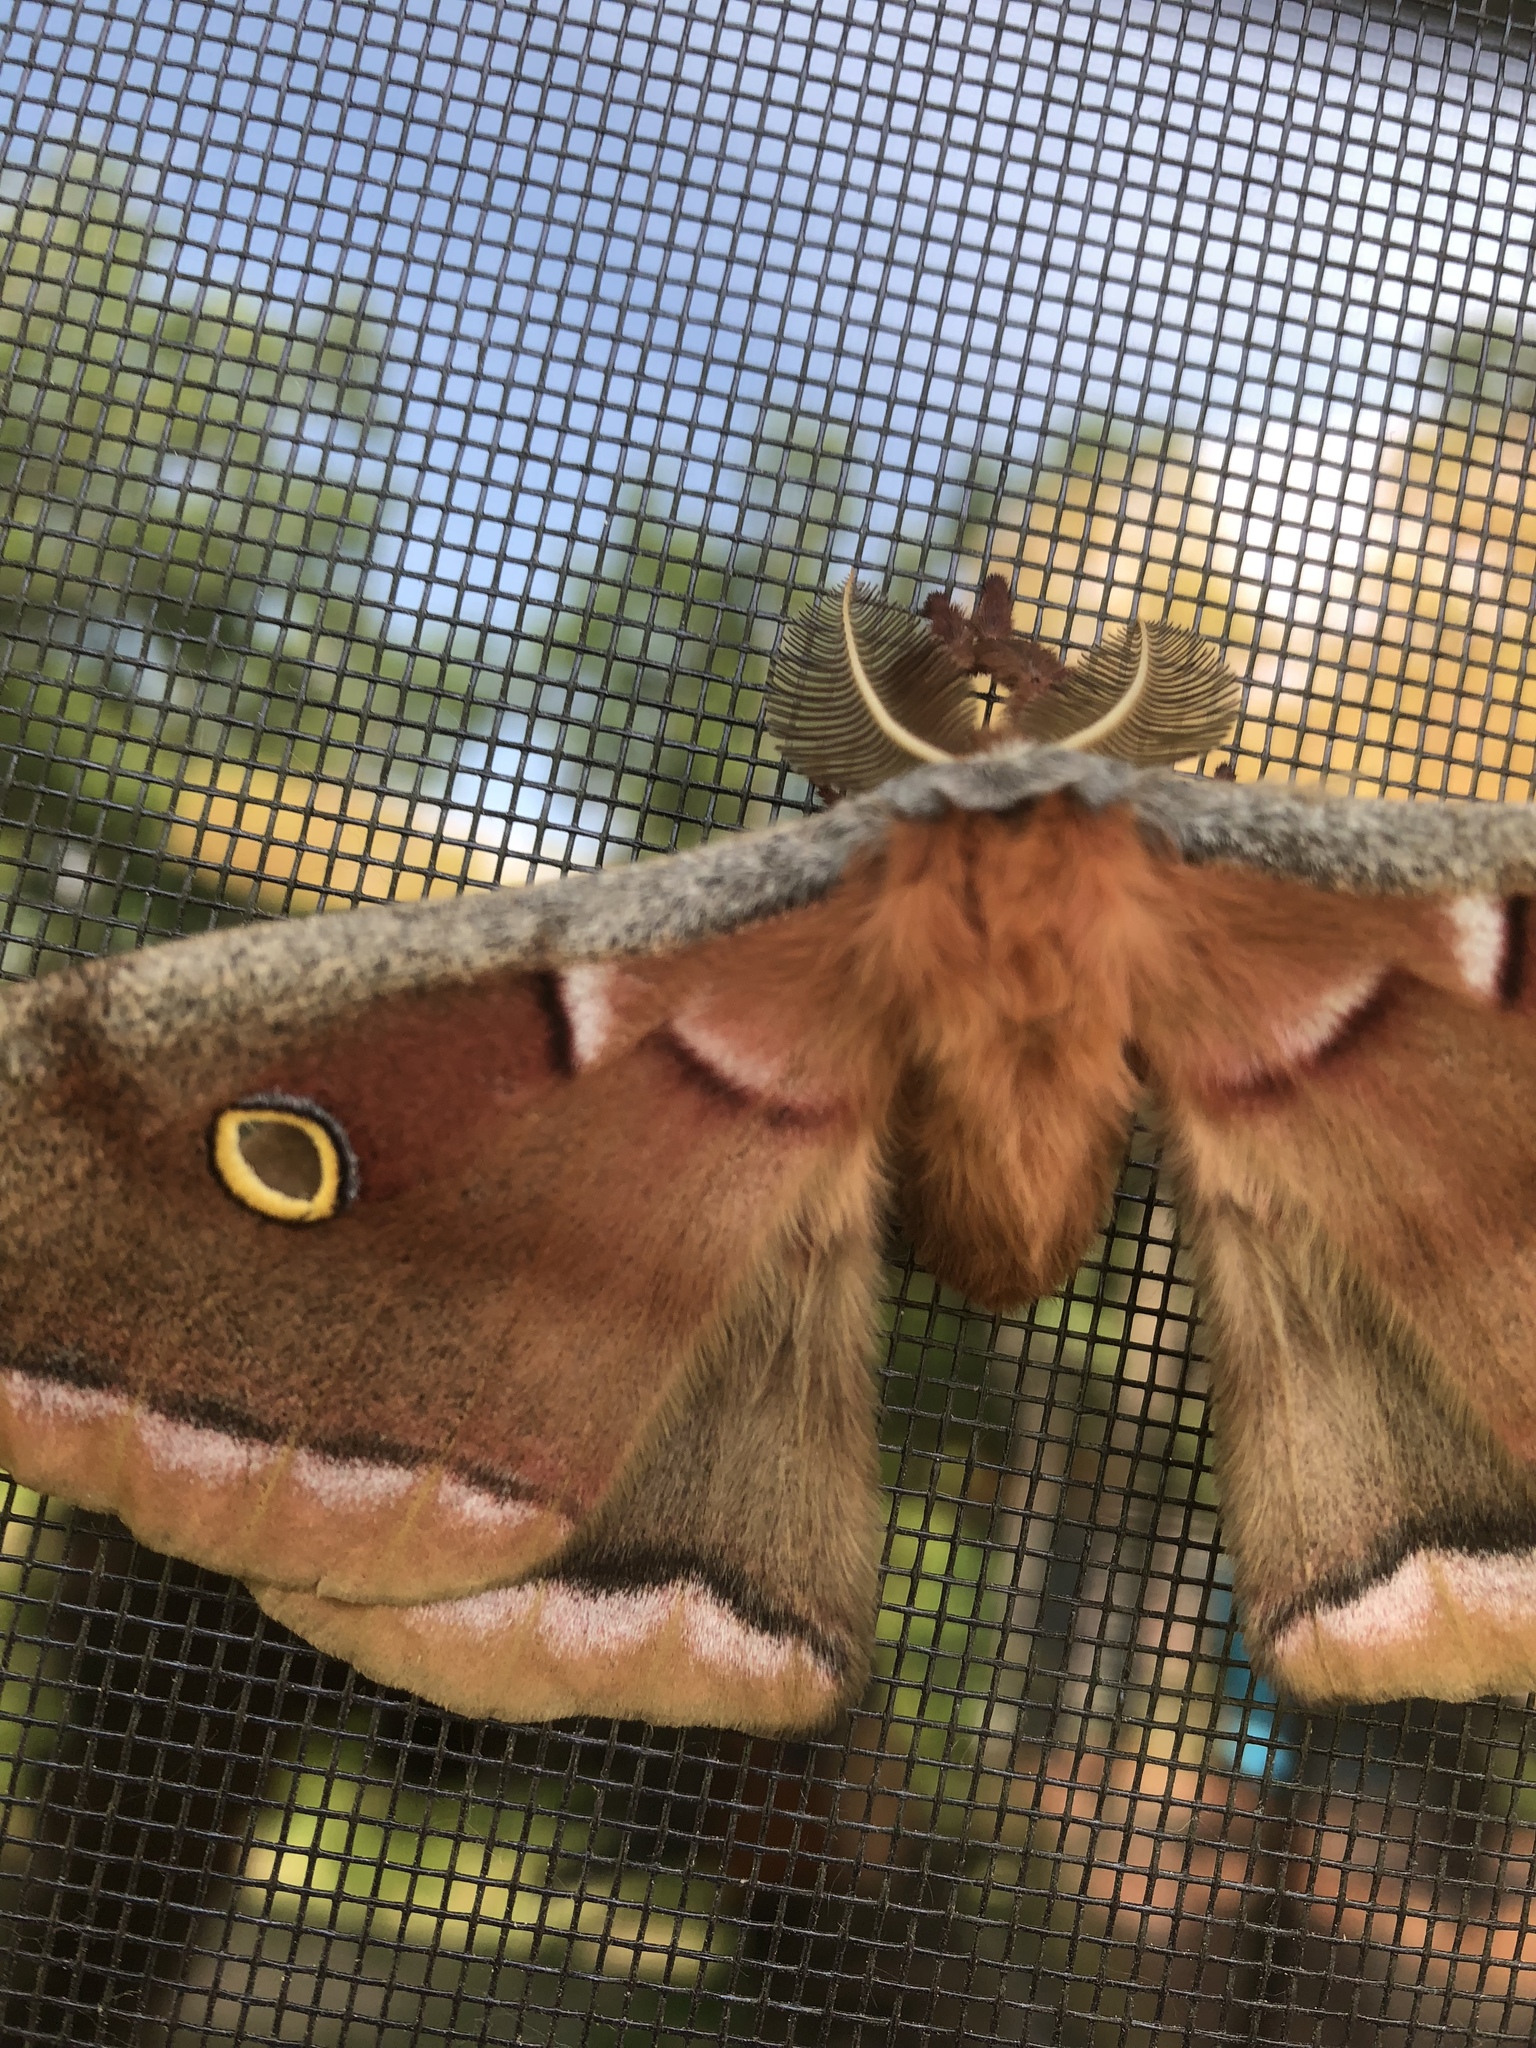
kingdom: Animalia
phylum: Arthropoda
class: Insecta
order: Lepidoptera
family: Saturniidae
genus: Antheraea
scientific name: Antheraea polyphemus
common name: Polyphemus moth
